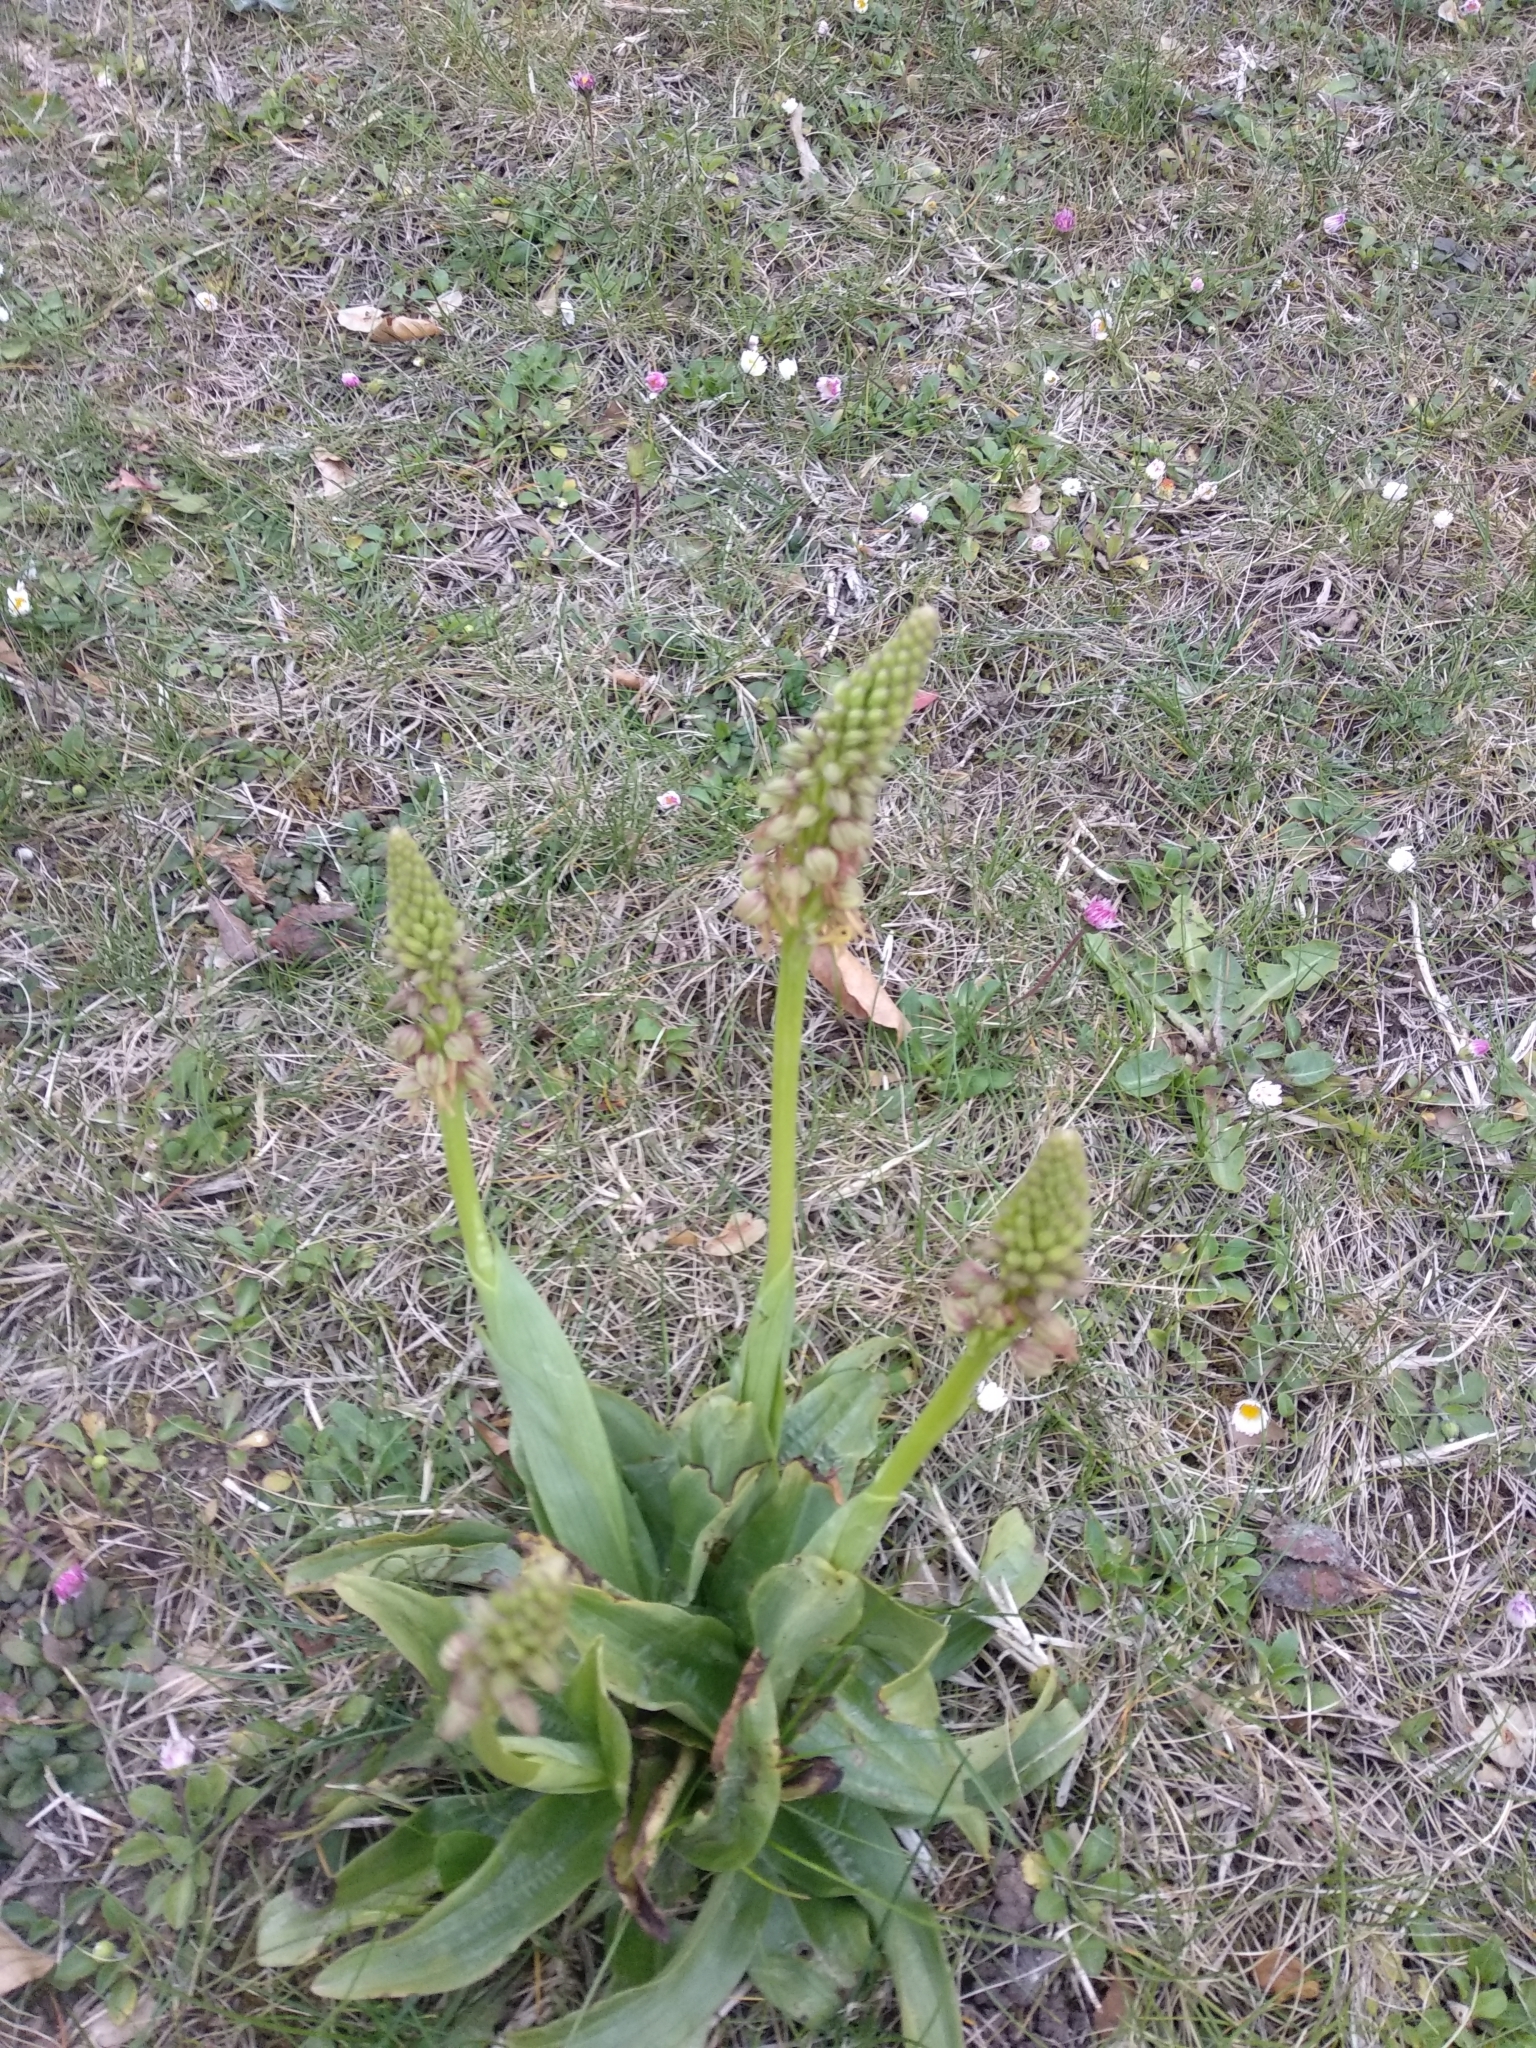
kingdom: Plantae
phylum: Tracheophyta
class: Liliopsida
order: Asparagales
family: Orchidaceae
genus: Orchis
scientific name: Orchis anthropophora
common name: Man orchid
